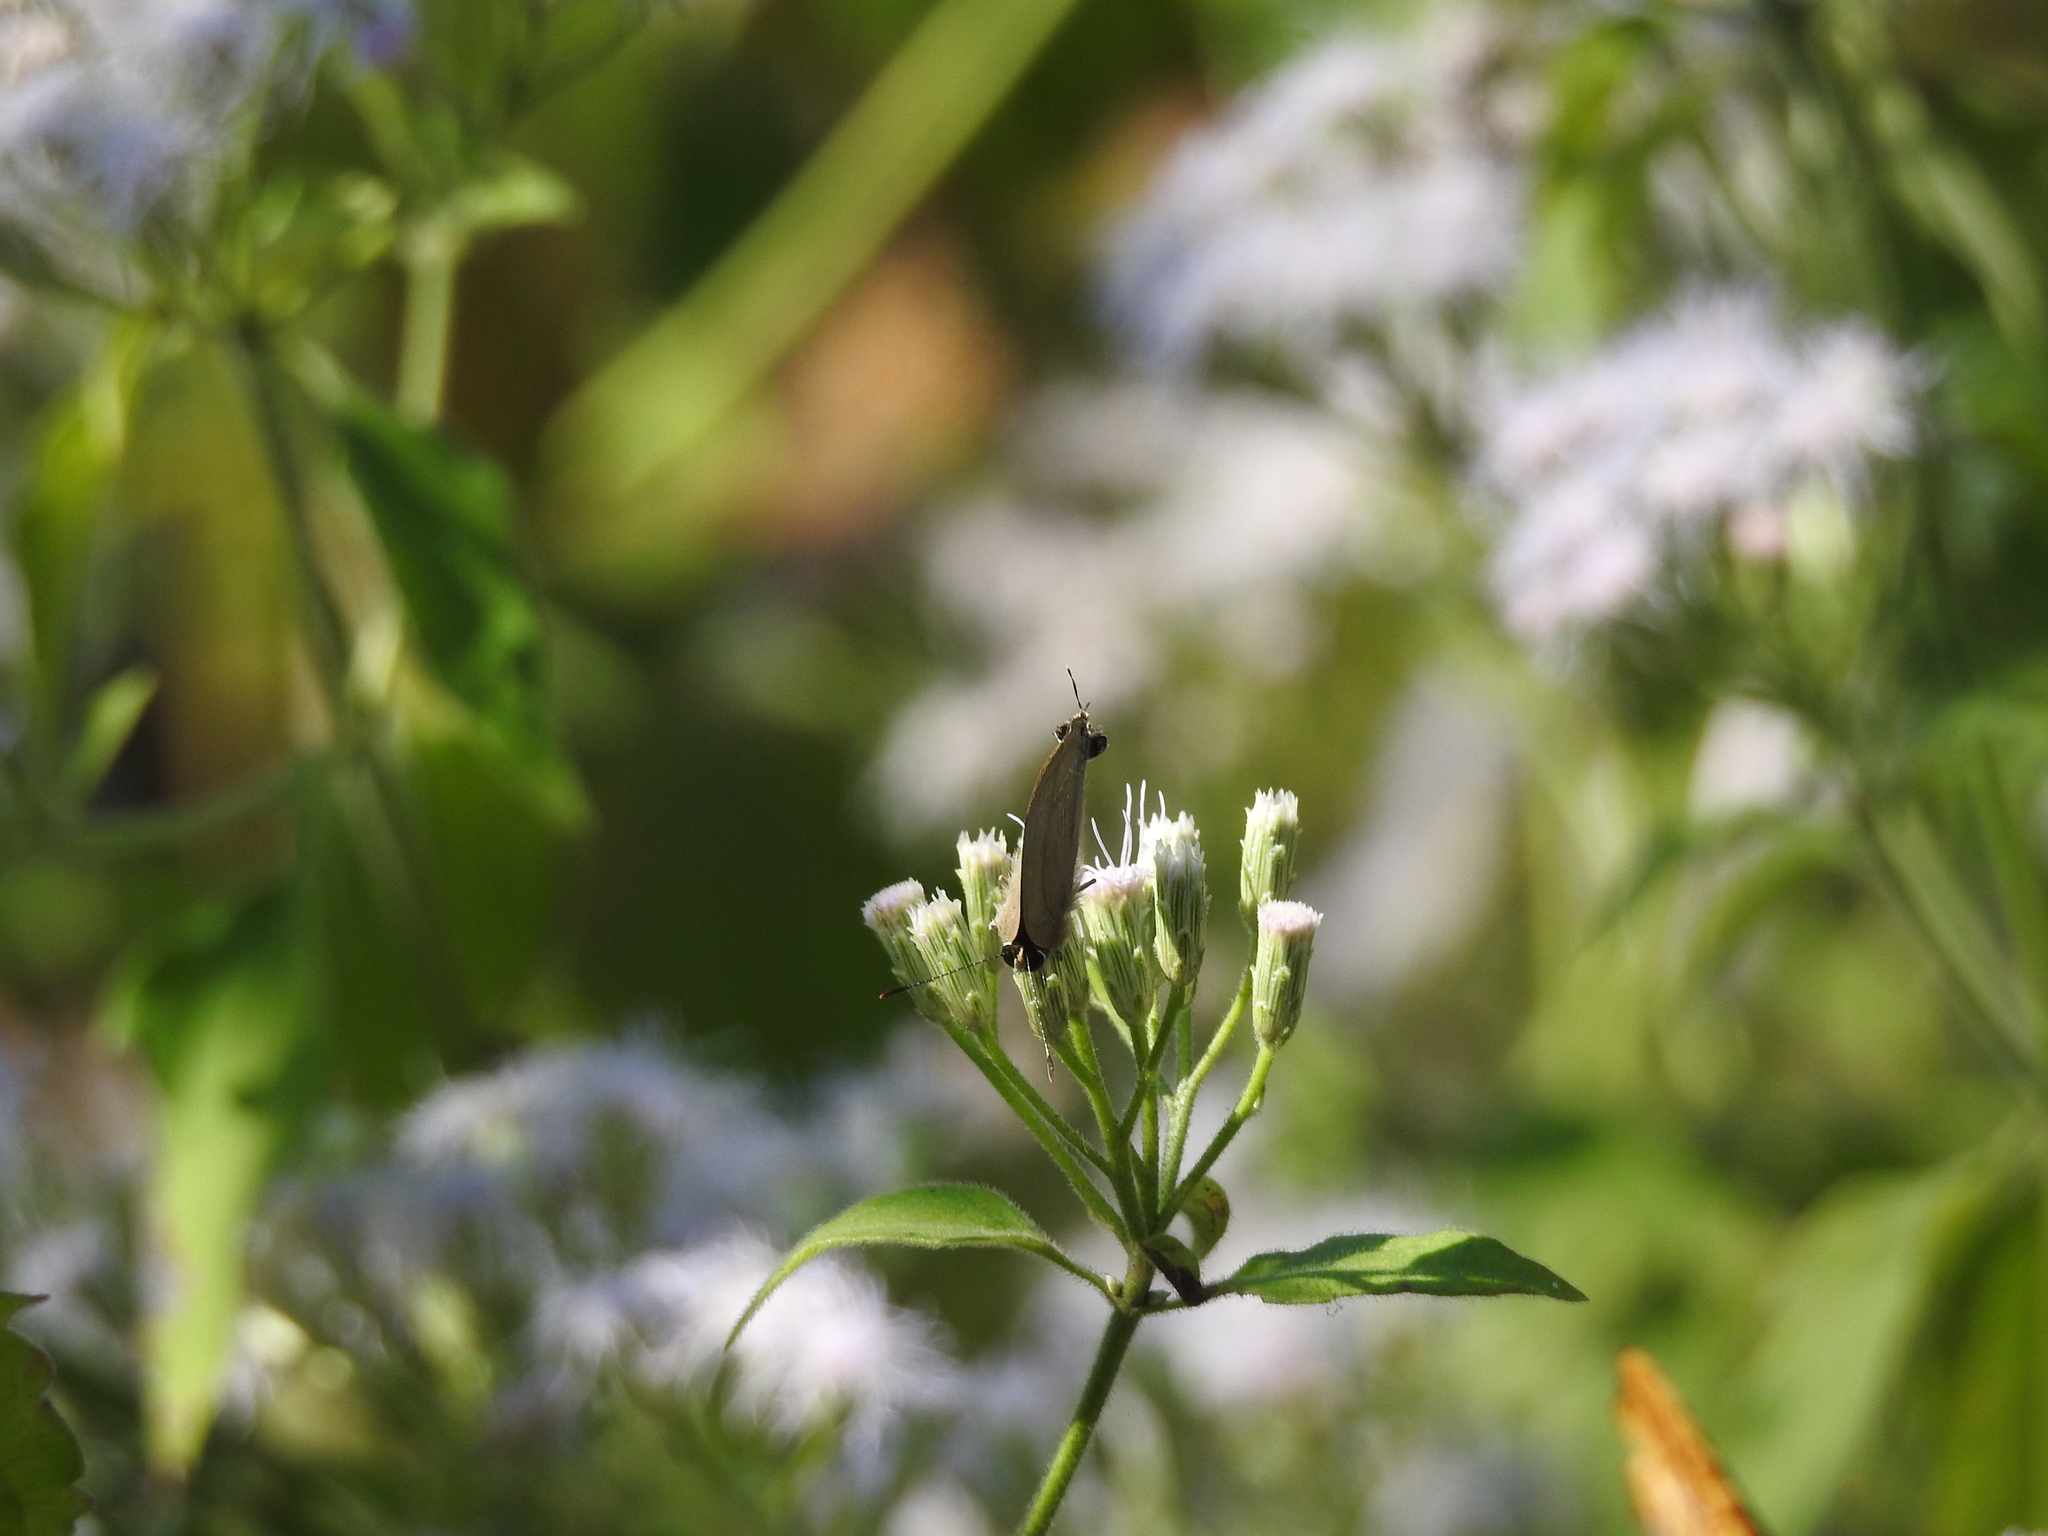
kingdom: Animalia
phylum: Arthropoda
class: Insecta
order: Lepidoptera
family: Lycaenidae
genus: Rapala
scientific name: Rapala manea
